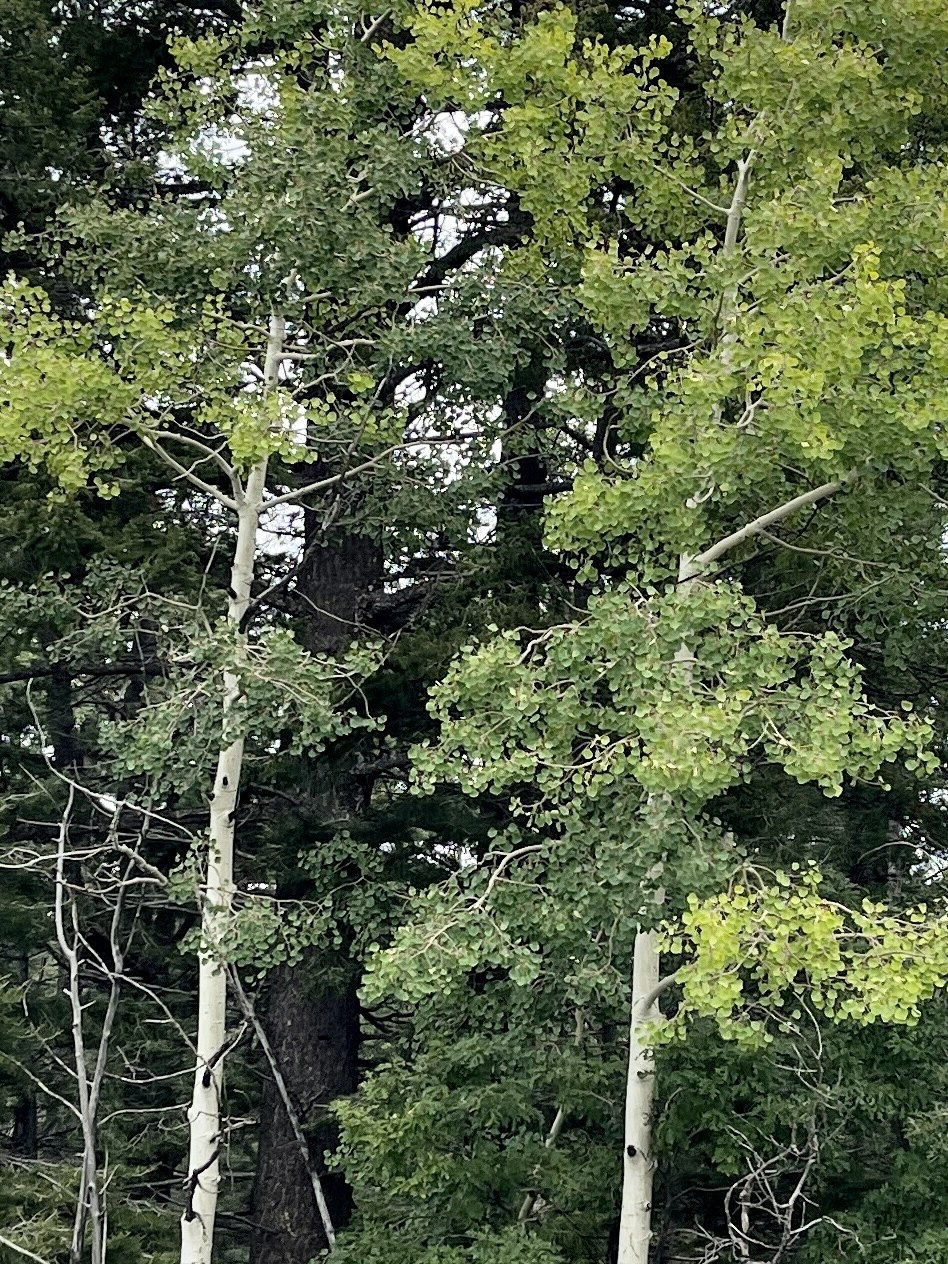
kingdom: Plantae
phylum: Tracheophyta
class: Magnoliopsida
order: Malpighiales
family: Salicaceae
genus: Populus
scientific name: Populus tremuloides
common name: Quaking aspen
